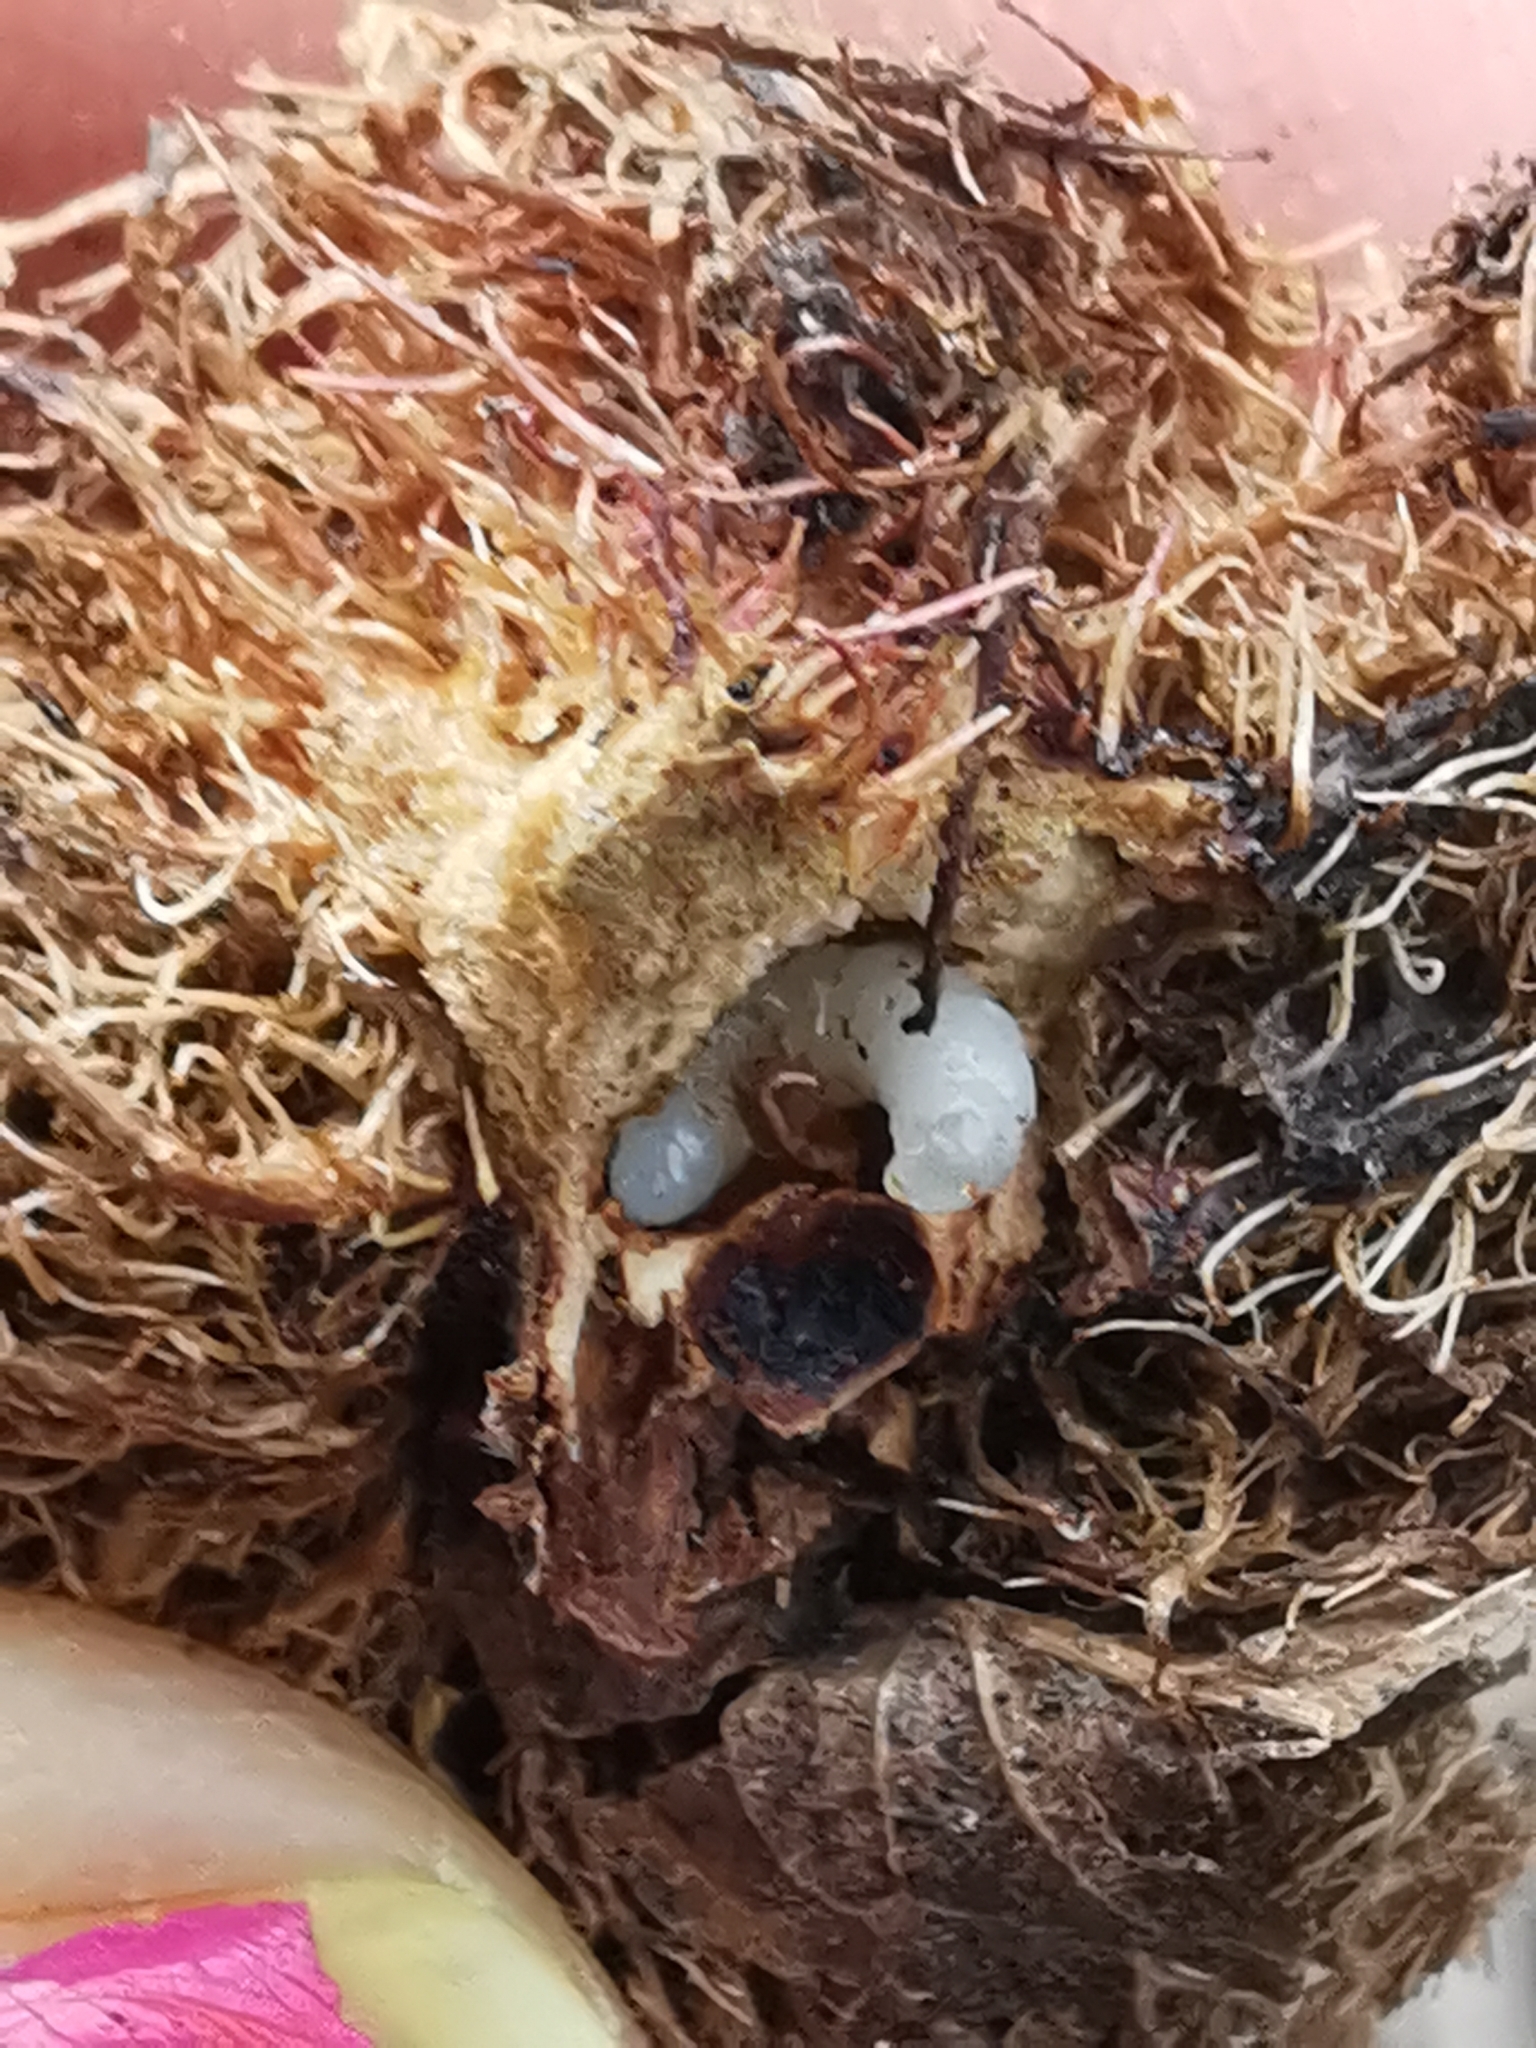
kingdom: Animalia
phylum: Arthropoda
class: Insecta
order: Hymenoptera
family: Cynipidae
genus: Diplolepis
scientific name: Diplolepis rosae
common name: Bedeguar gall
